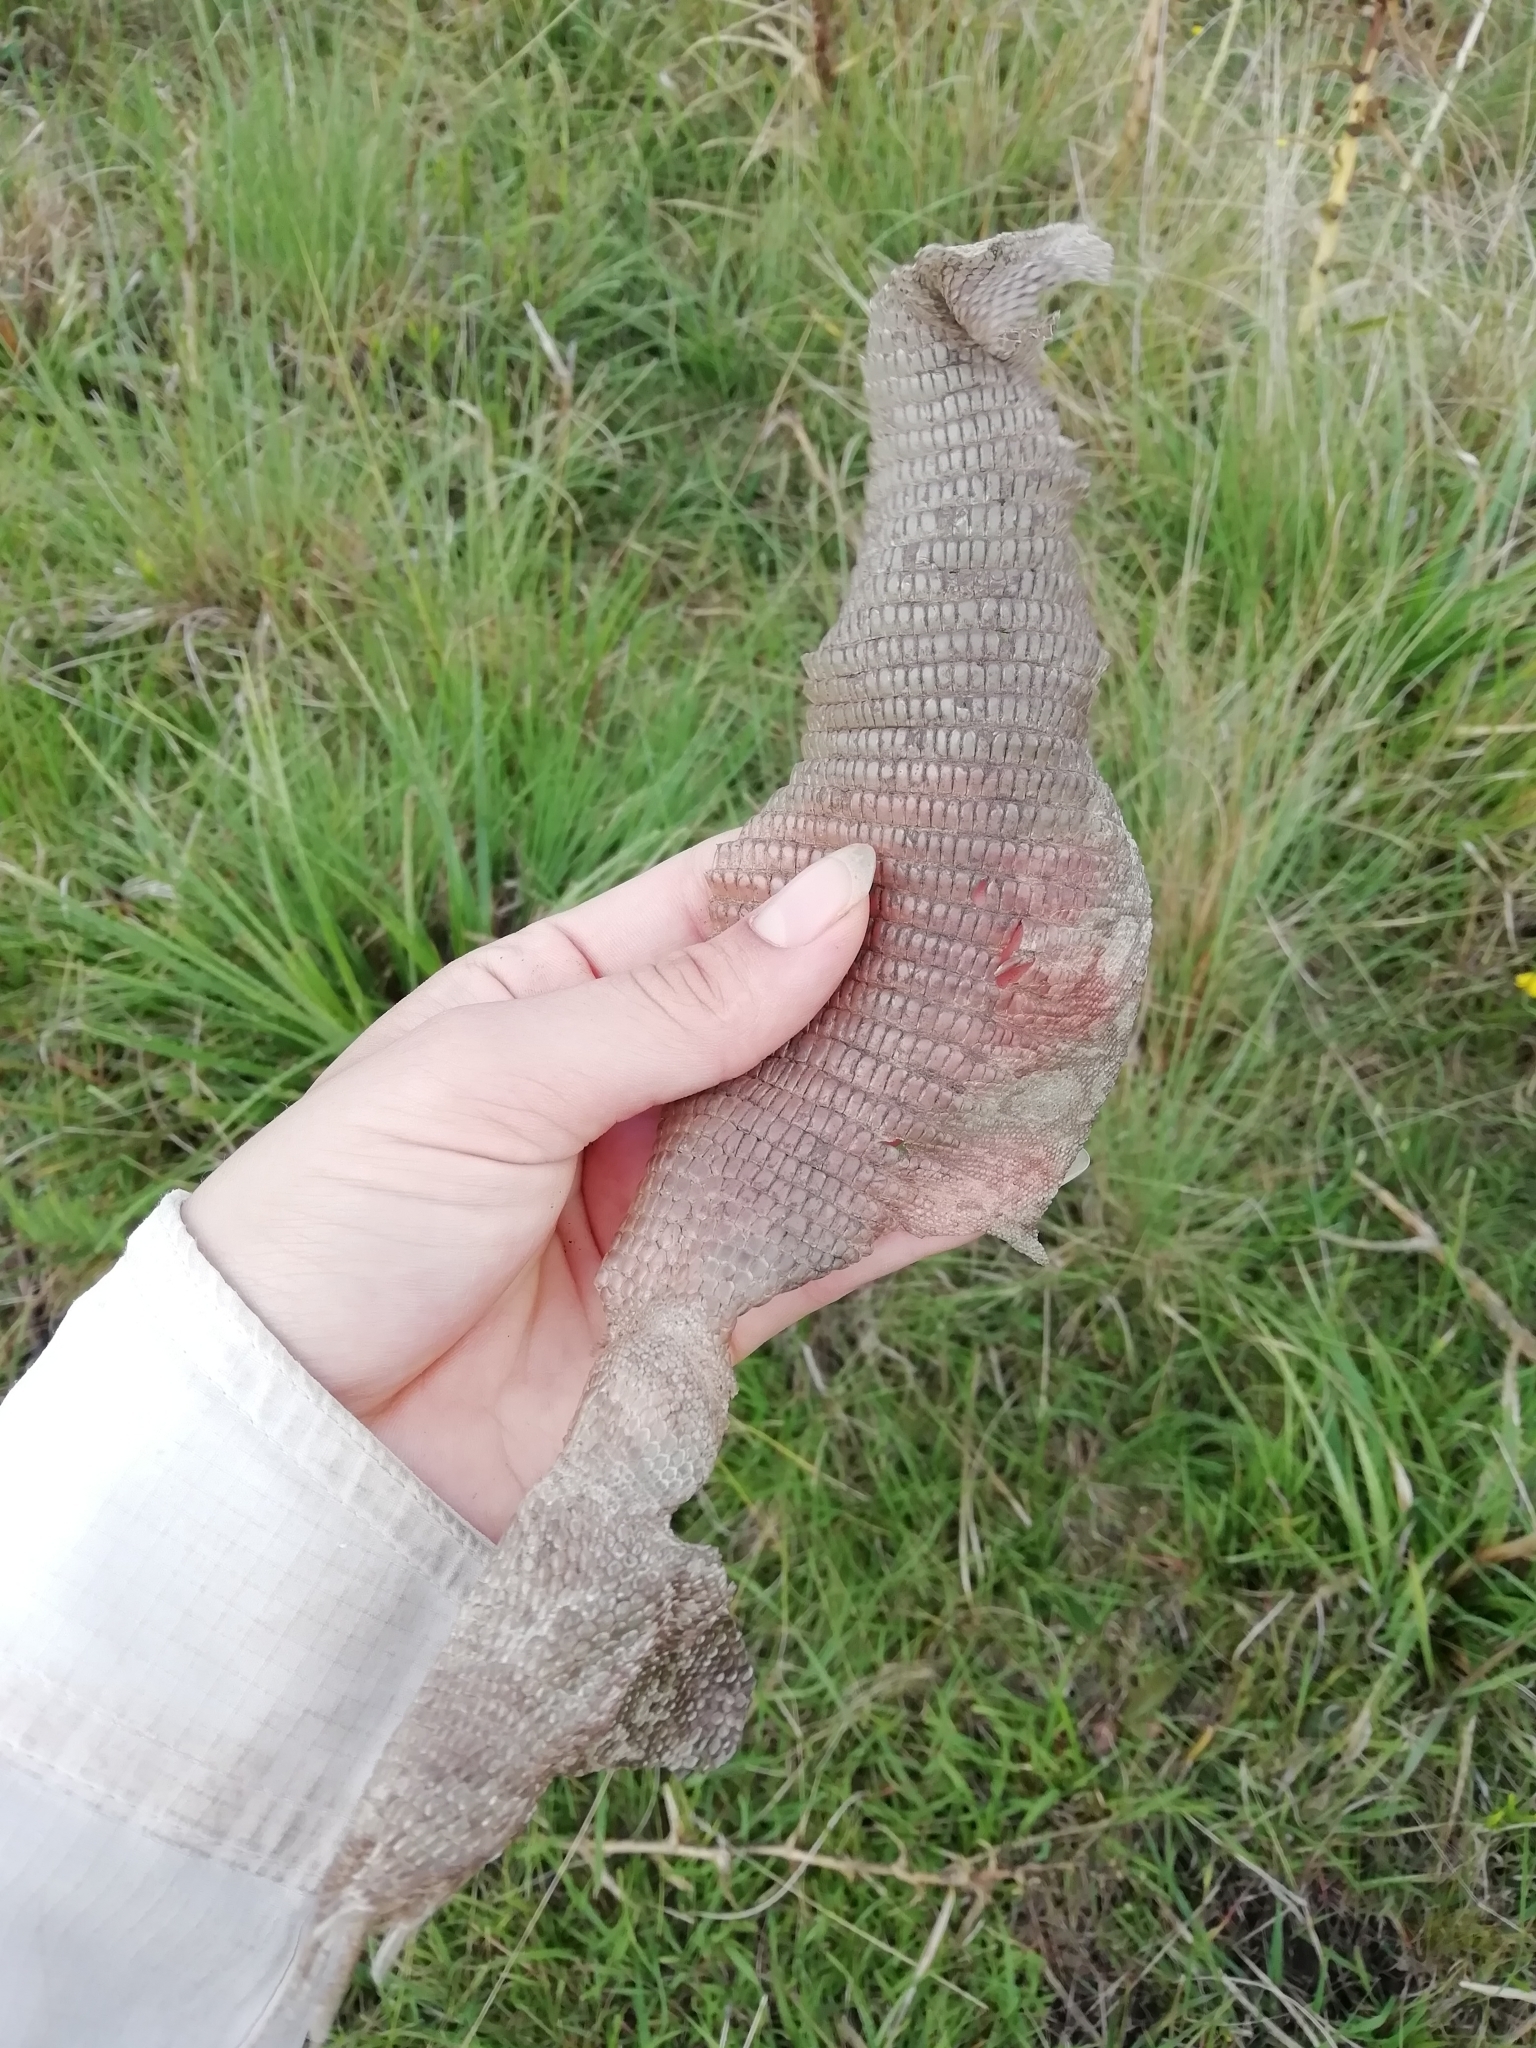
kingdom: Animalia
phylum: Chordata
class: Squamata
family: Teiidae
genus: Salvator
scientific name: Salvator merianae
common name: Argentine black and white tegu
